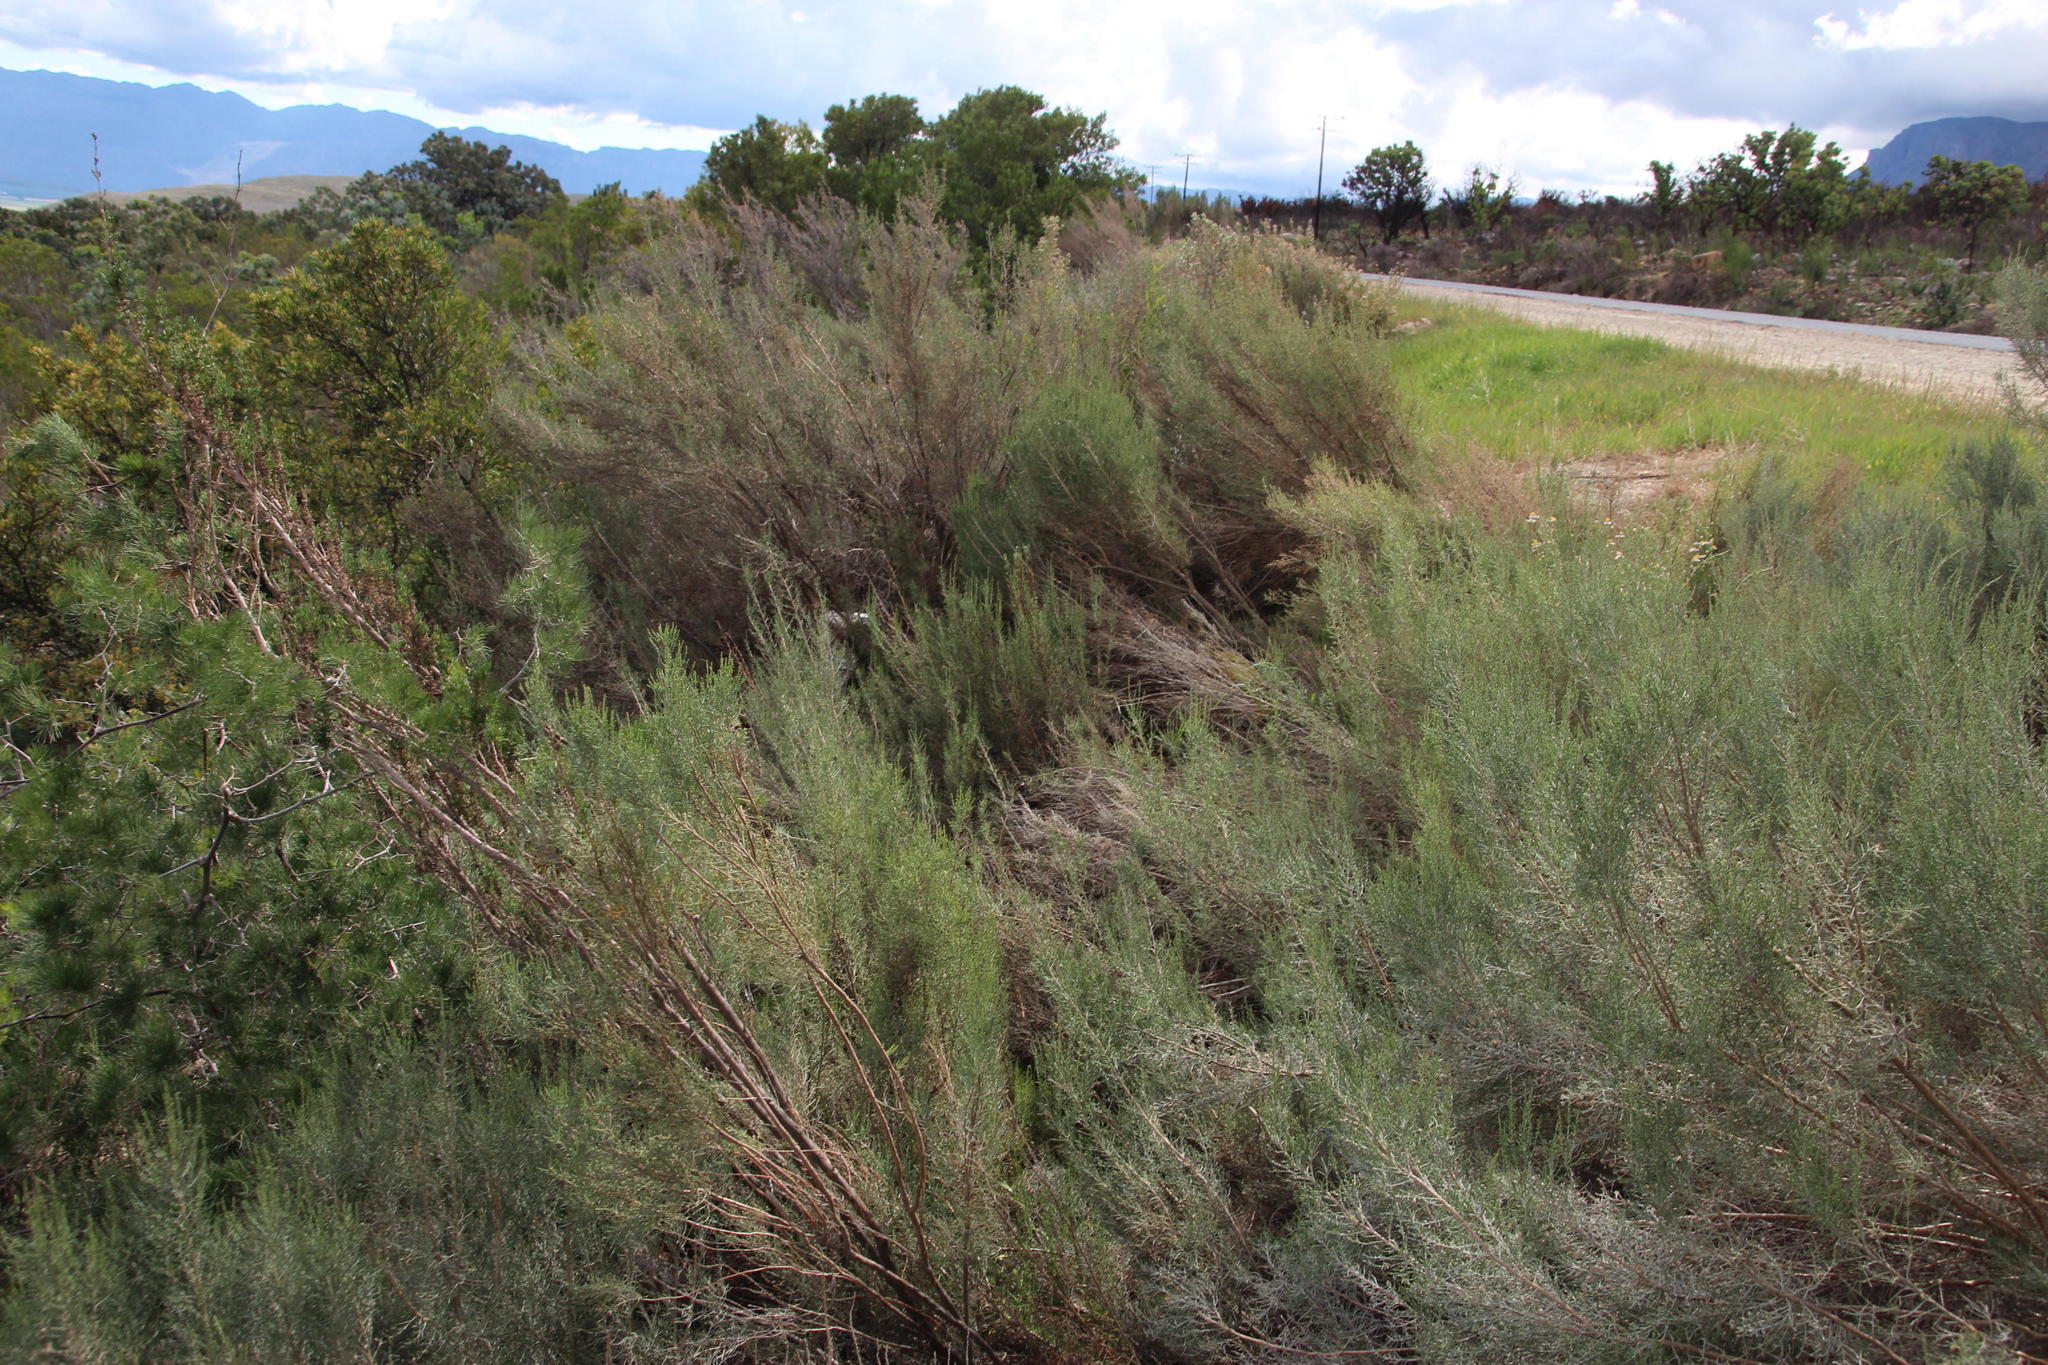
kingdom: Plantae
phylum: Tracheophyta
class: Magnoliopsida
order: Asterales
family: Asteraceae
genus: Dicerothamnus
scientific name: Dicerothamnus rhinocerotis
